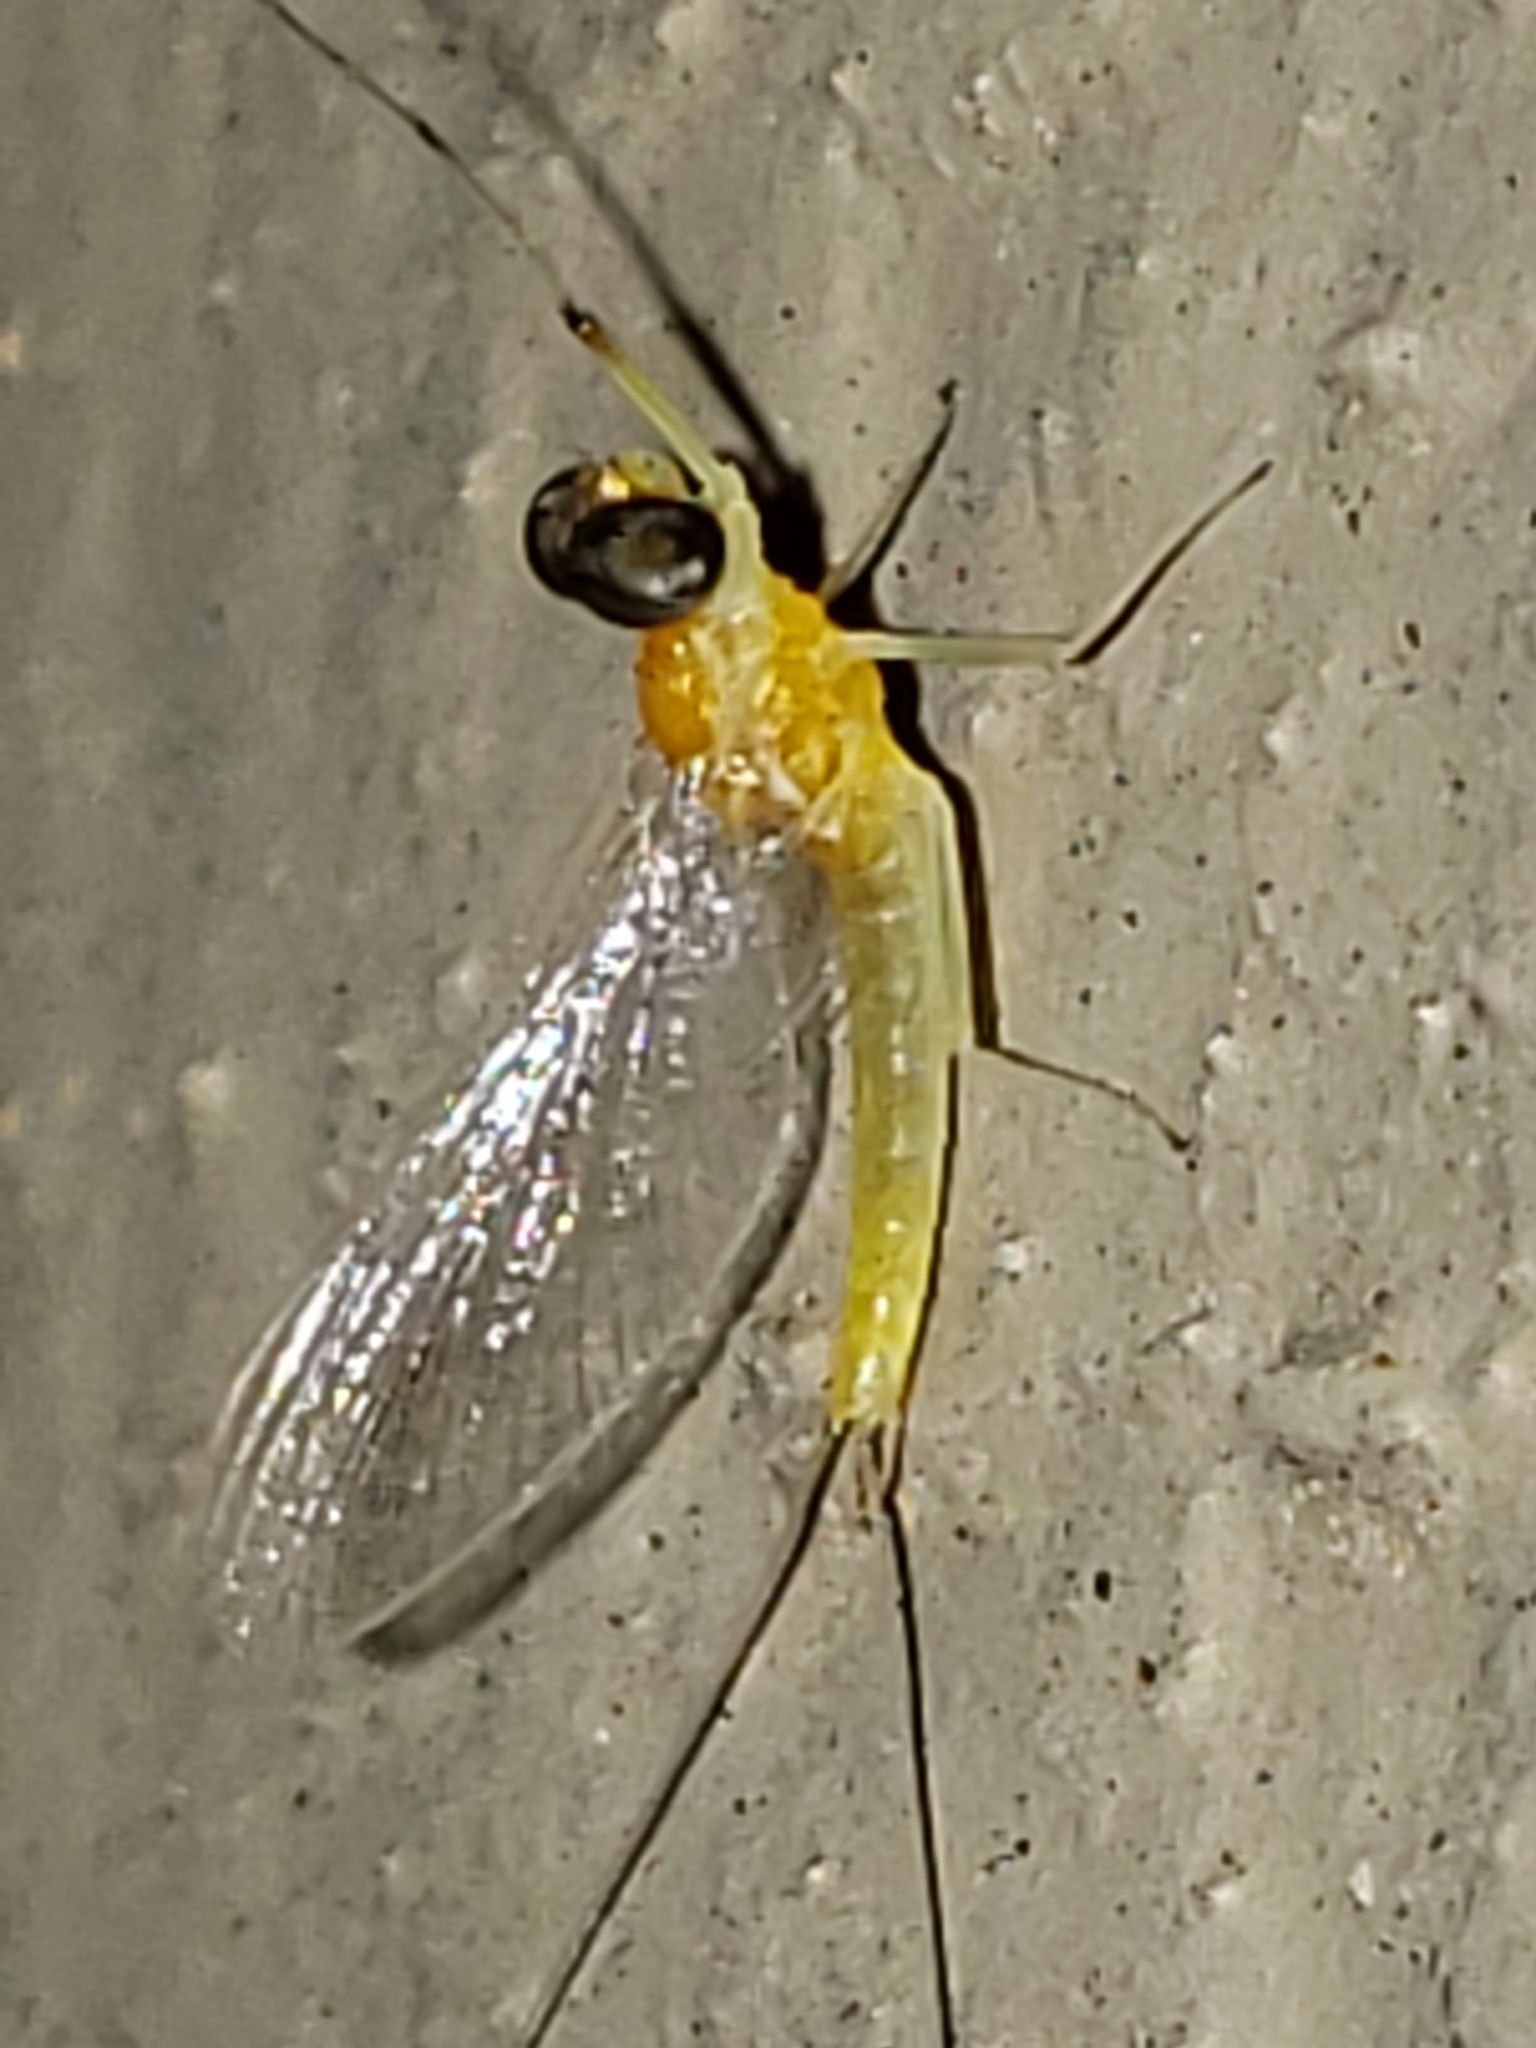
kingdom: Animalia
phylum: Arthropoda
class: Insecta
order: Ephemeroptera
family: Heptageniidae
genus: Nixe
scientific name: Nixe inconspicua
